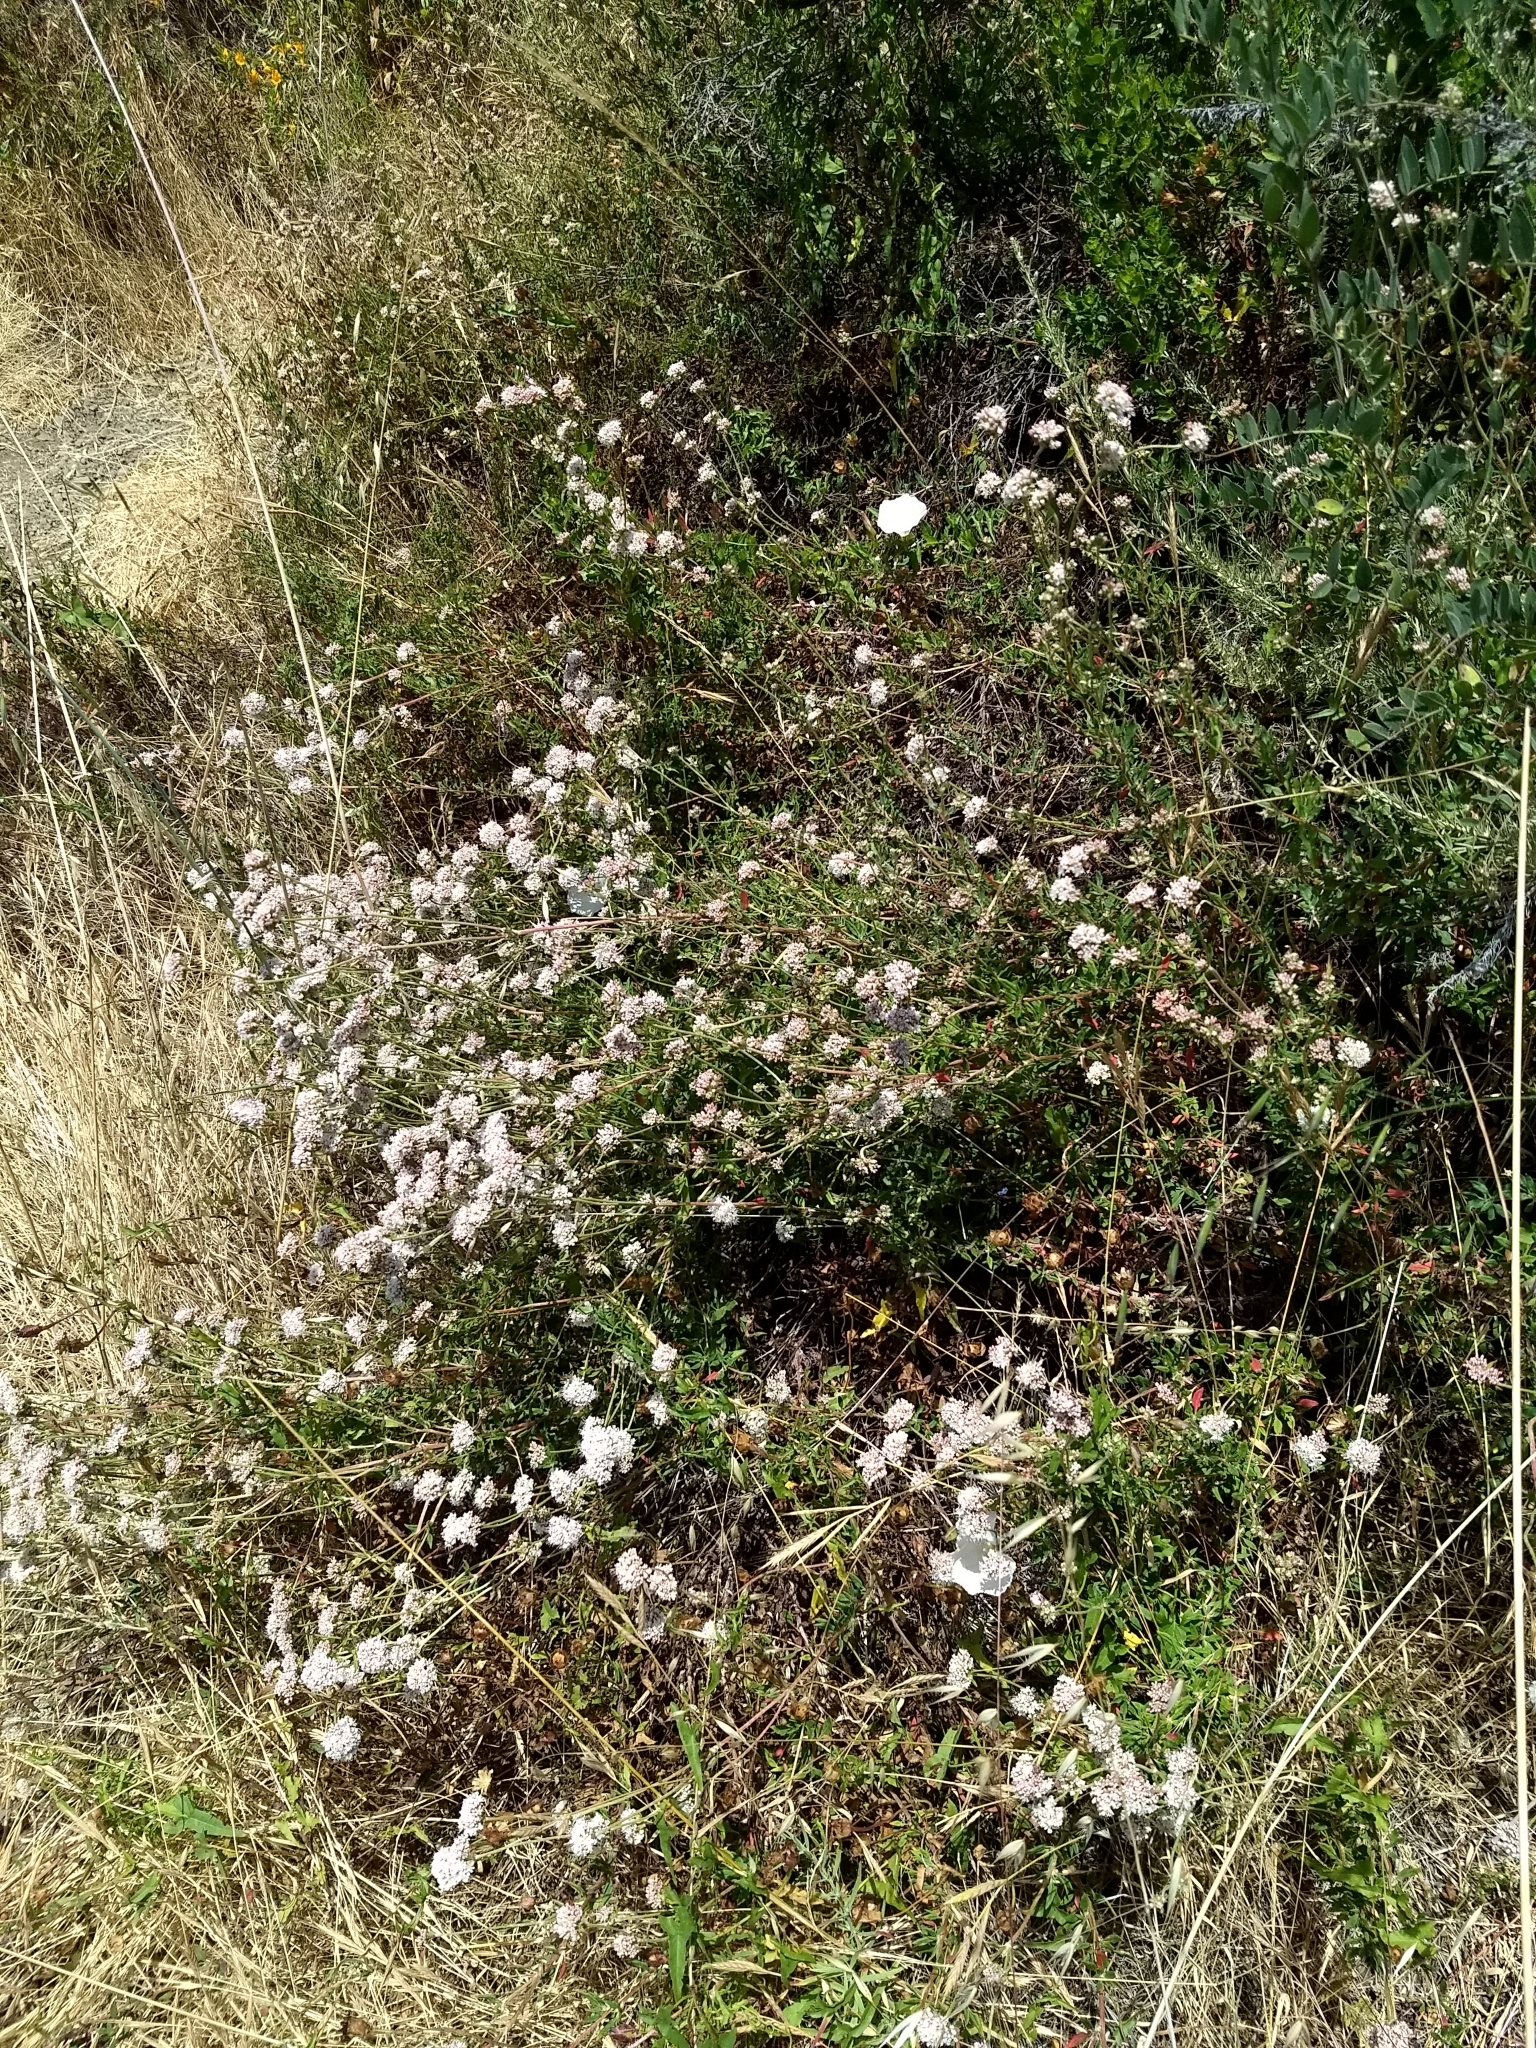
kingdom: Plantae
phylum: Tracheophyta
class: Magnoliopsida
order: Caryophyllales
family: Polygonaceae
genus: Eriogonum
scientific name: Eriogonum parvifolium
